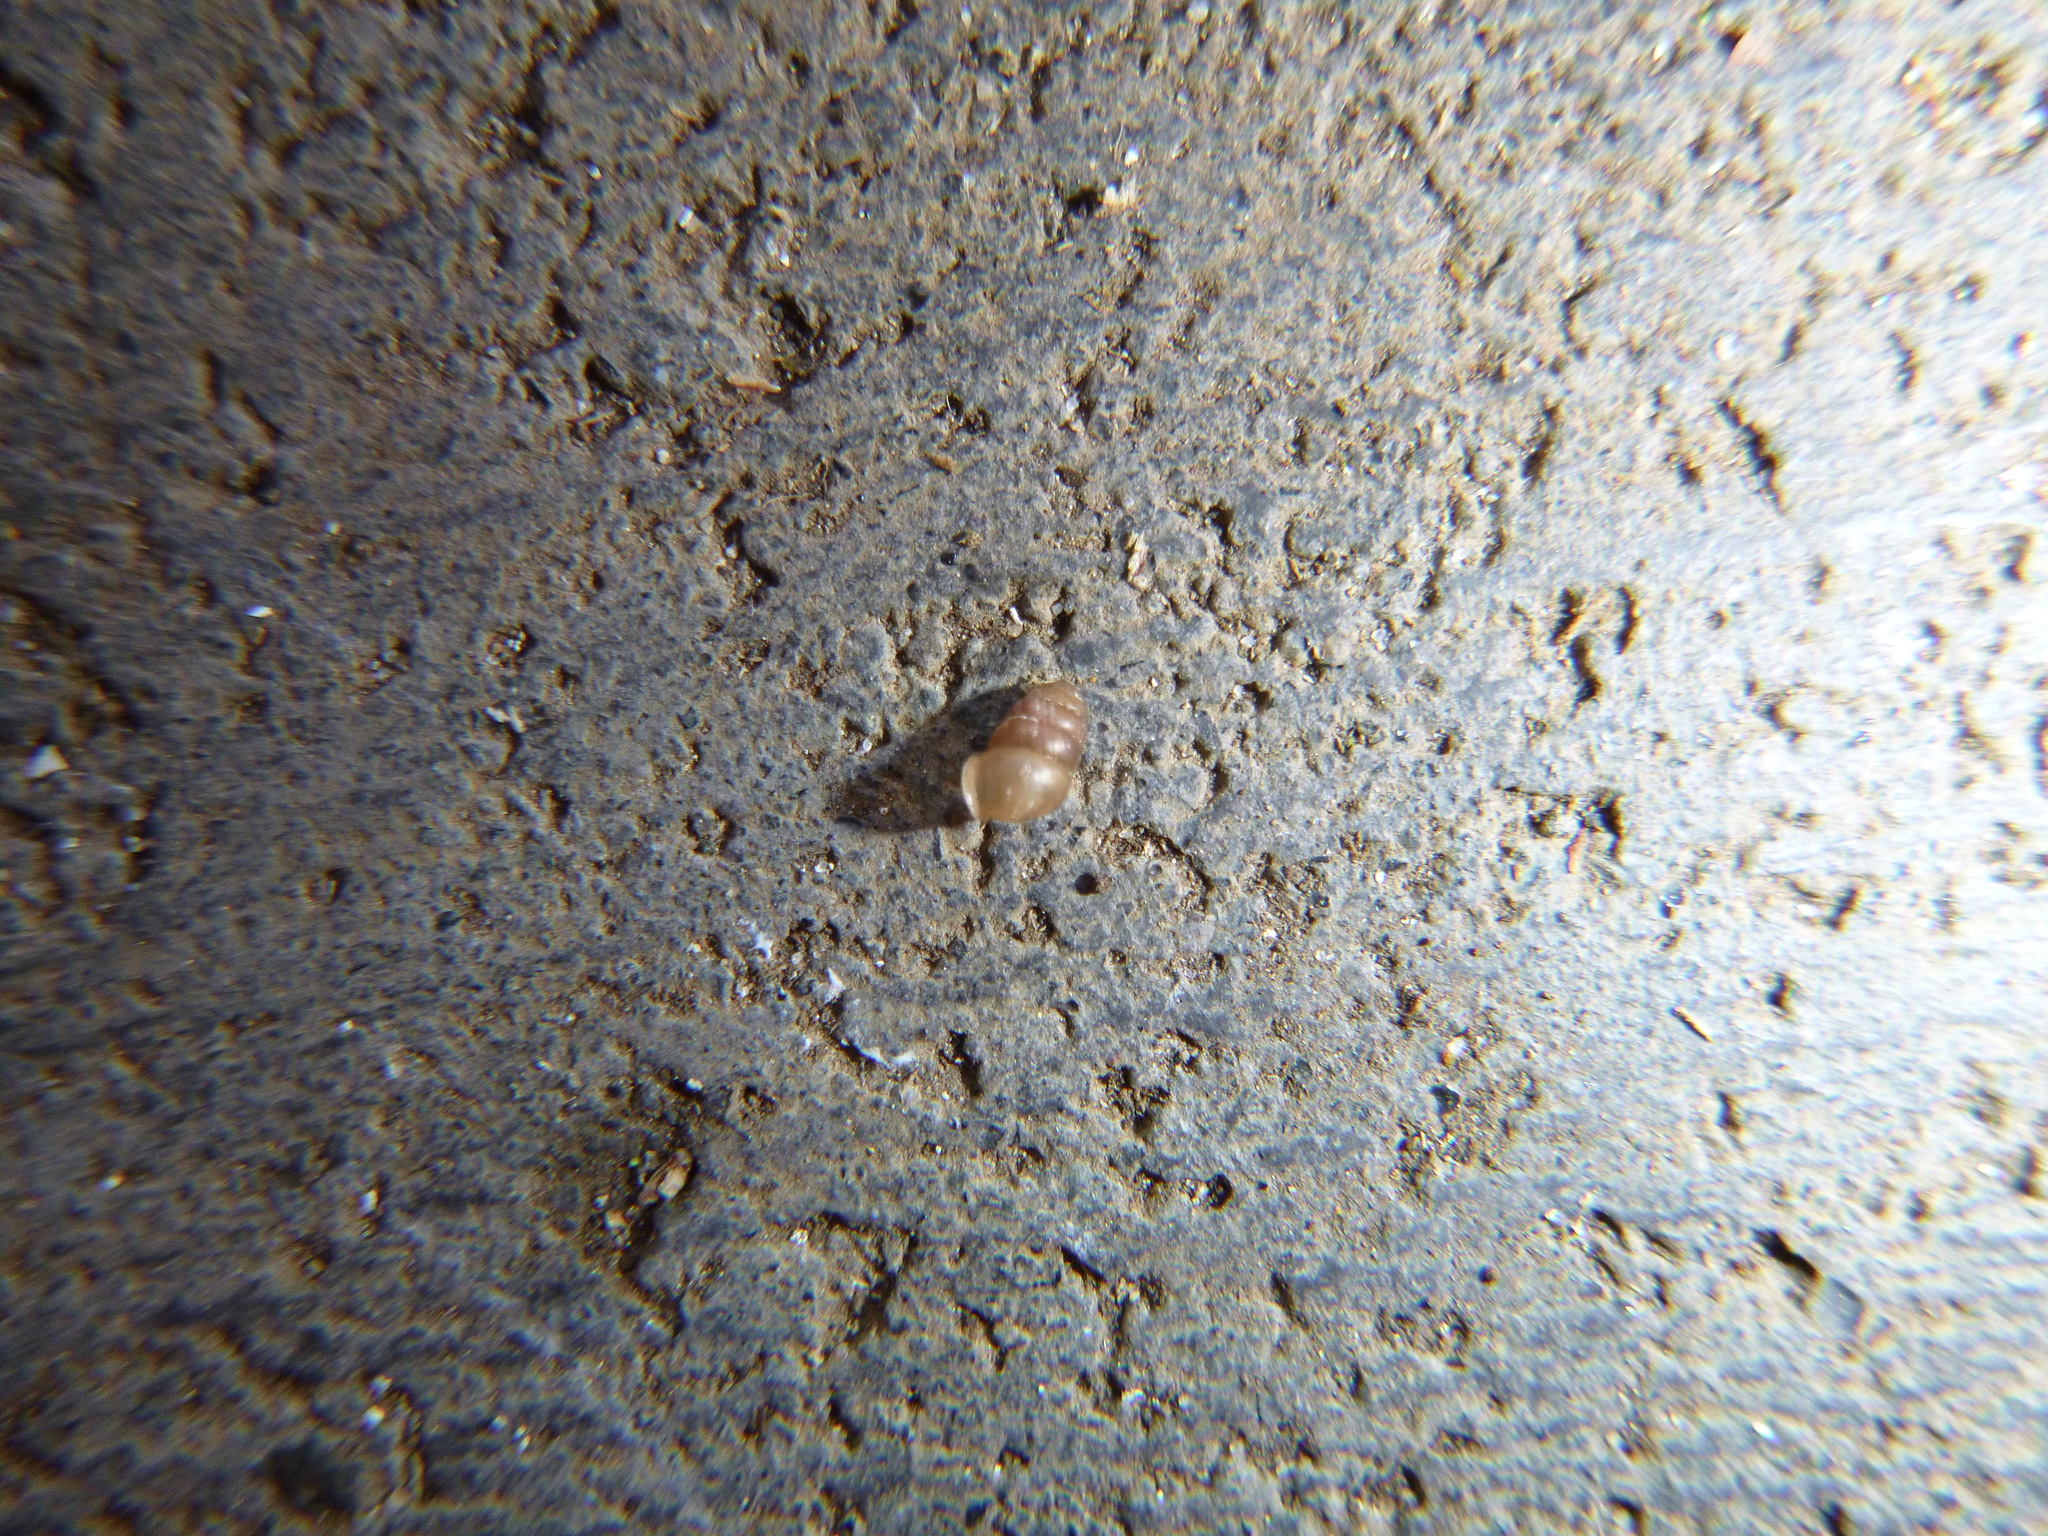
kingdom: Animalia
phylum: Mollusca
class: Gastropoda
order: Stylommatophora
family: Lauriidae
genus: Lauria
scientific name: Lauria cylindracea
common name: Common chrysalis snail
